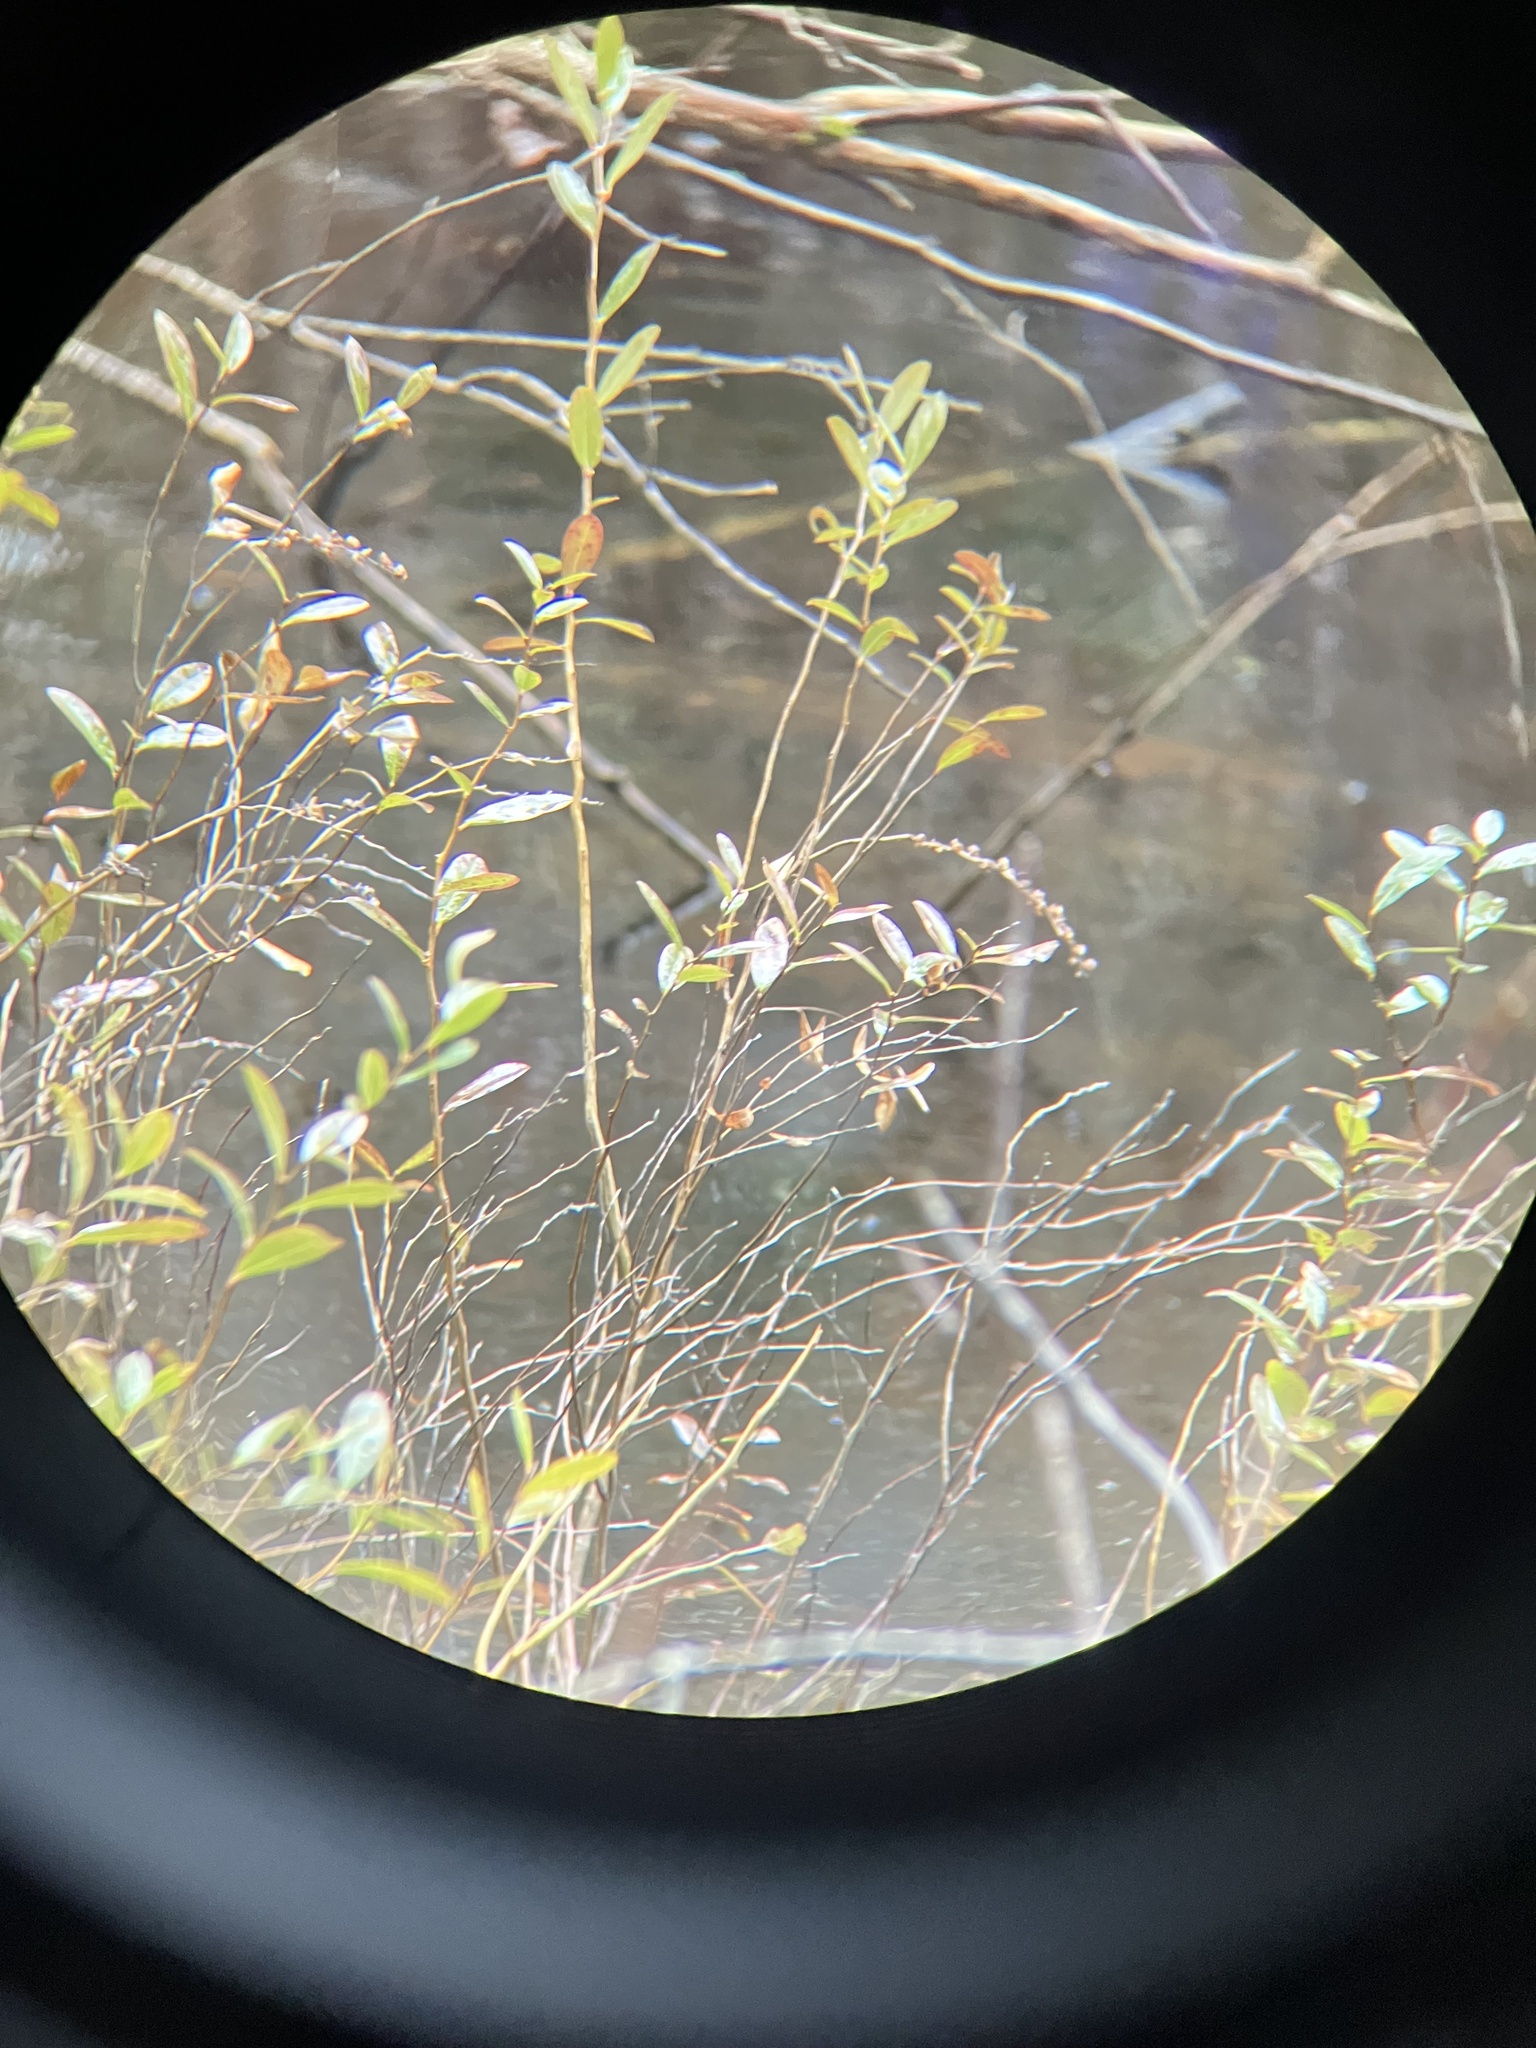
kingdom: Plantae
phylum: Tracheophyta
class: Magnoliopsida
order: Ericales
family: Ericaceae
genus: Chamaedaphne
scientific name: Chamaedaphne calyculata
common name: Leatherleaf
